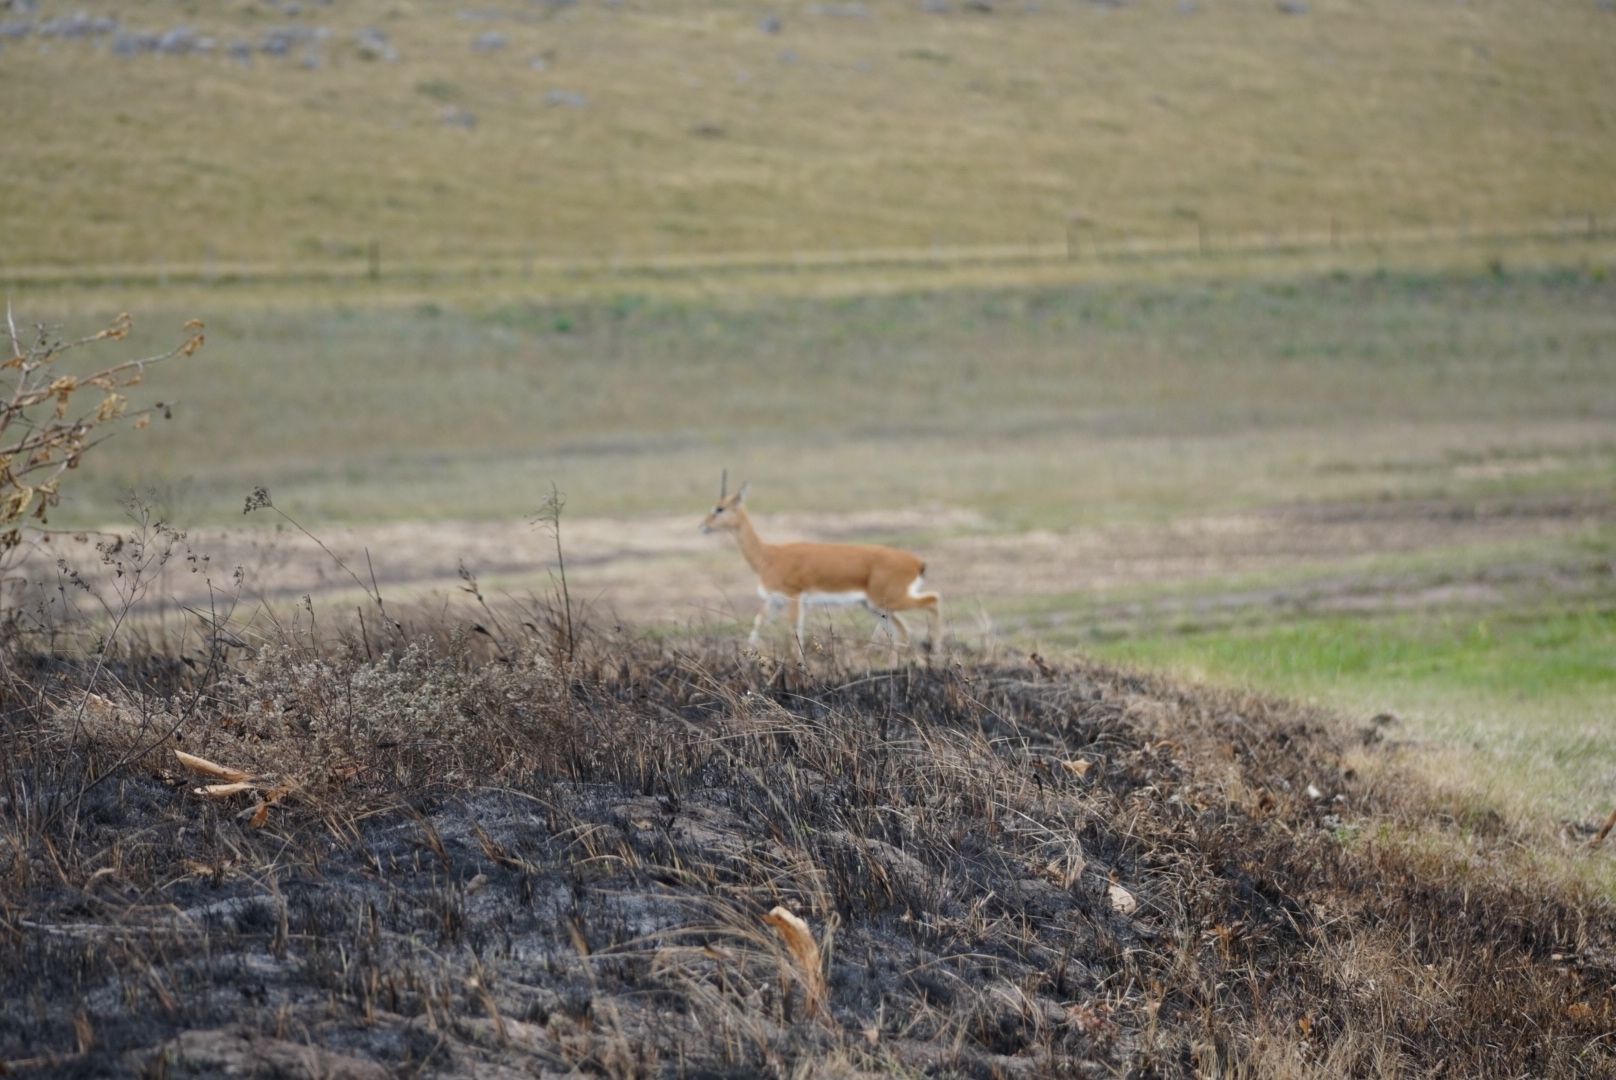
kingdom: Animalia
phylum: Chordata
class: Mammalia
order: Artiodactyla
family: Bovidae
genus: Ourebia
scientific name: Ourebia ourebi
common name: Oribi
